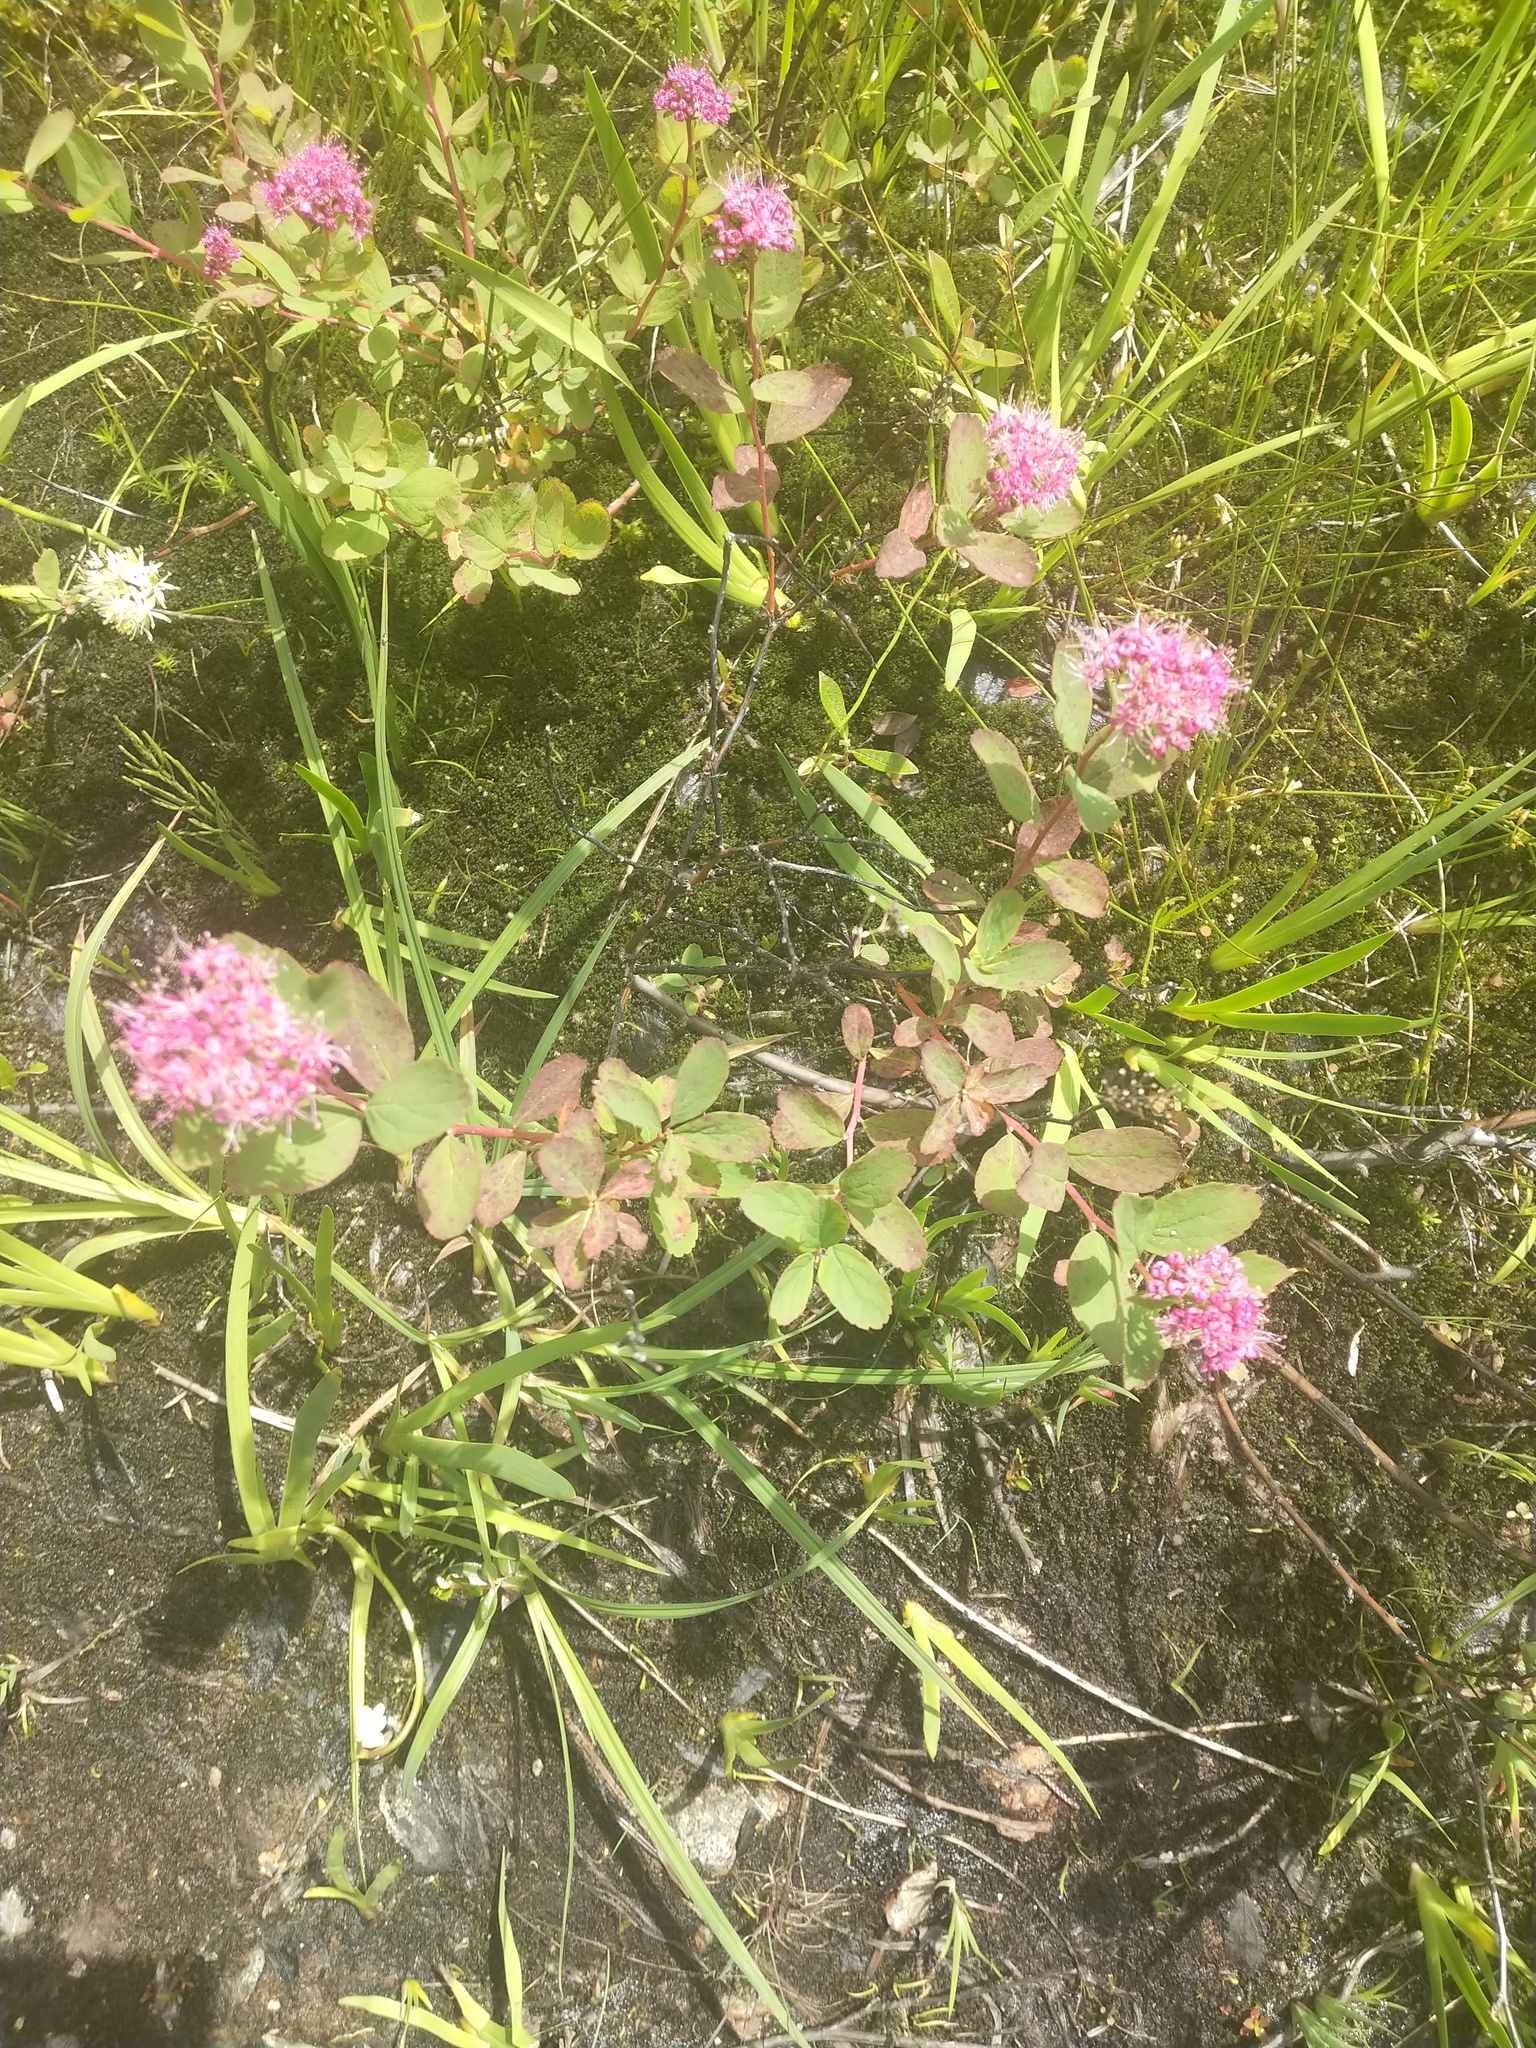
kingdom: Plantae
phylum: Tracheophyta
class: Magnoliopsida
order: Rosales
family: Rosaceae
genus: Spiraea
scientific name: Spiraea splendens
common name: Subalpine meadowsweet
